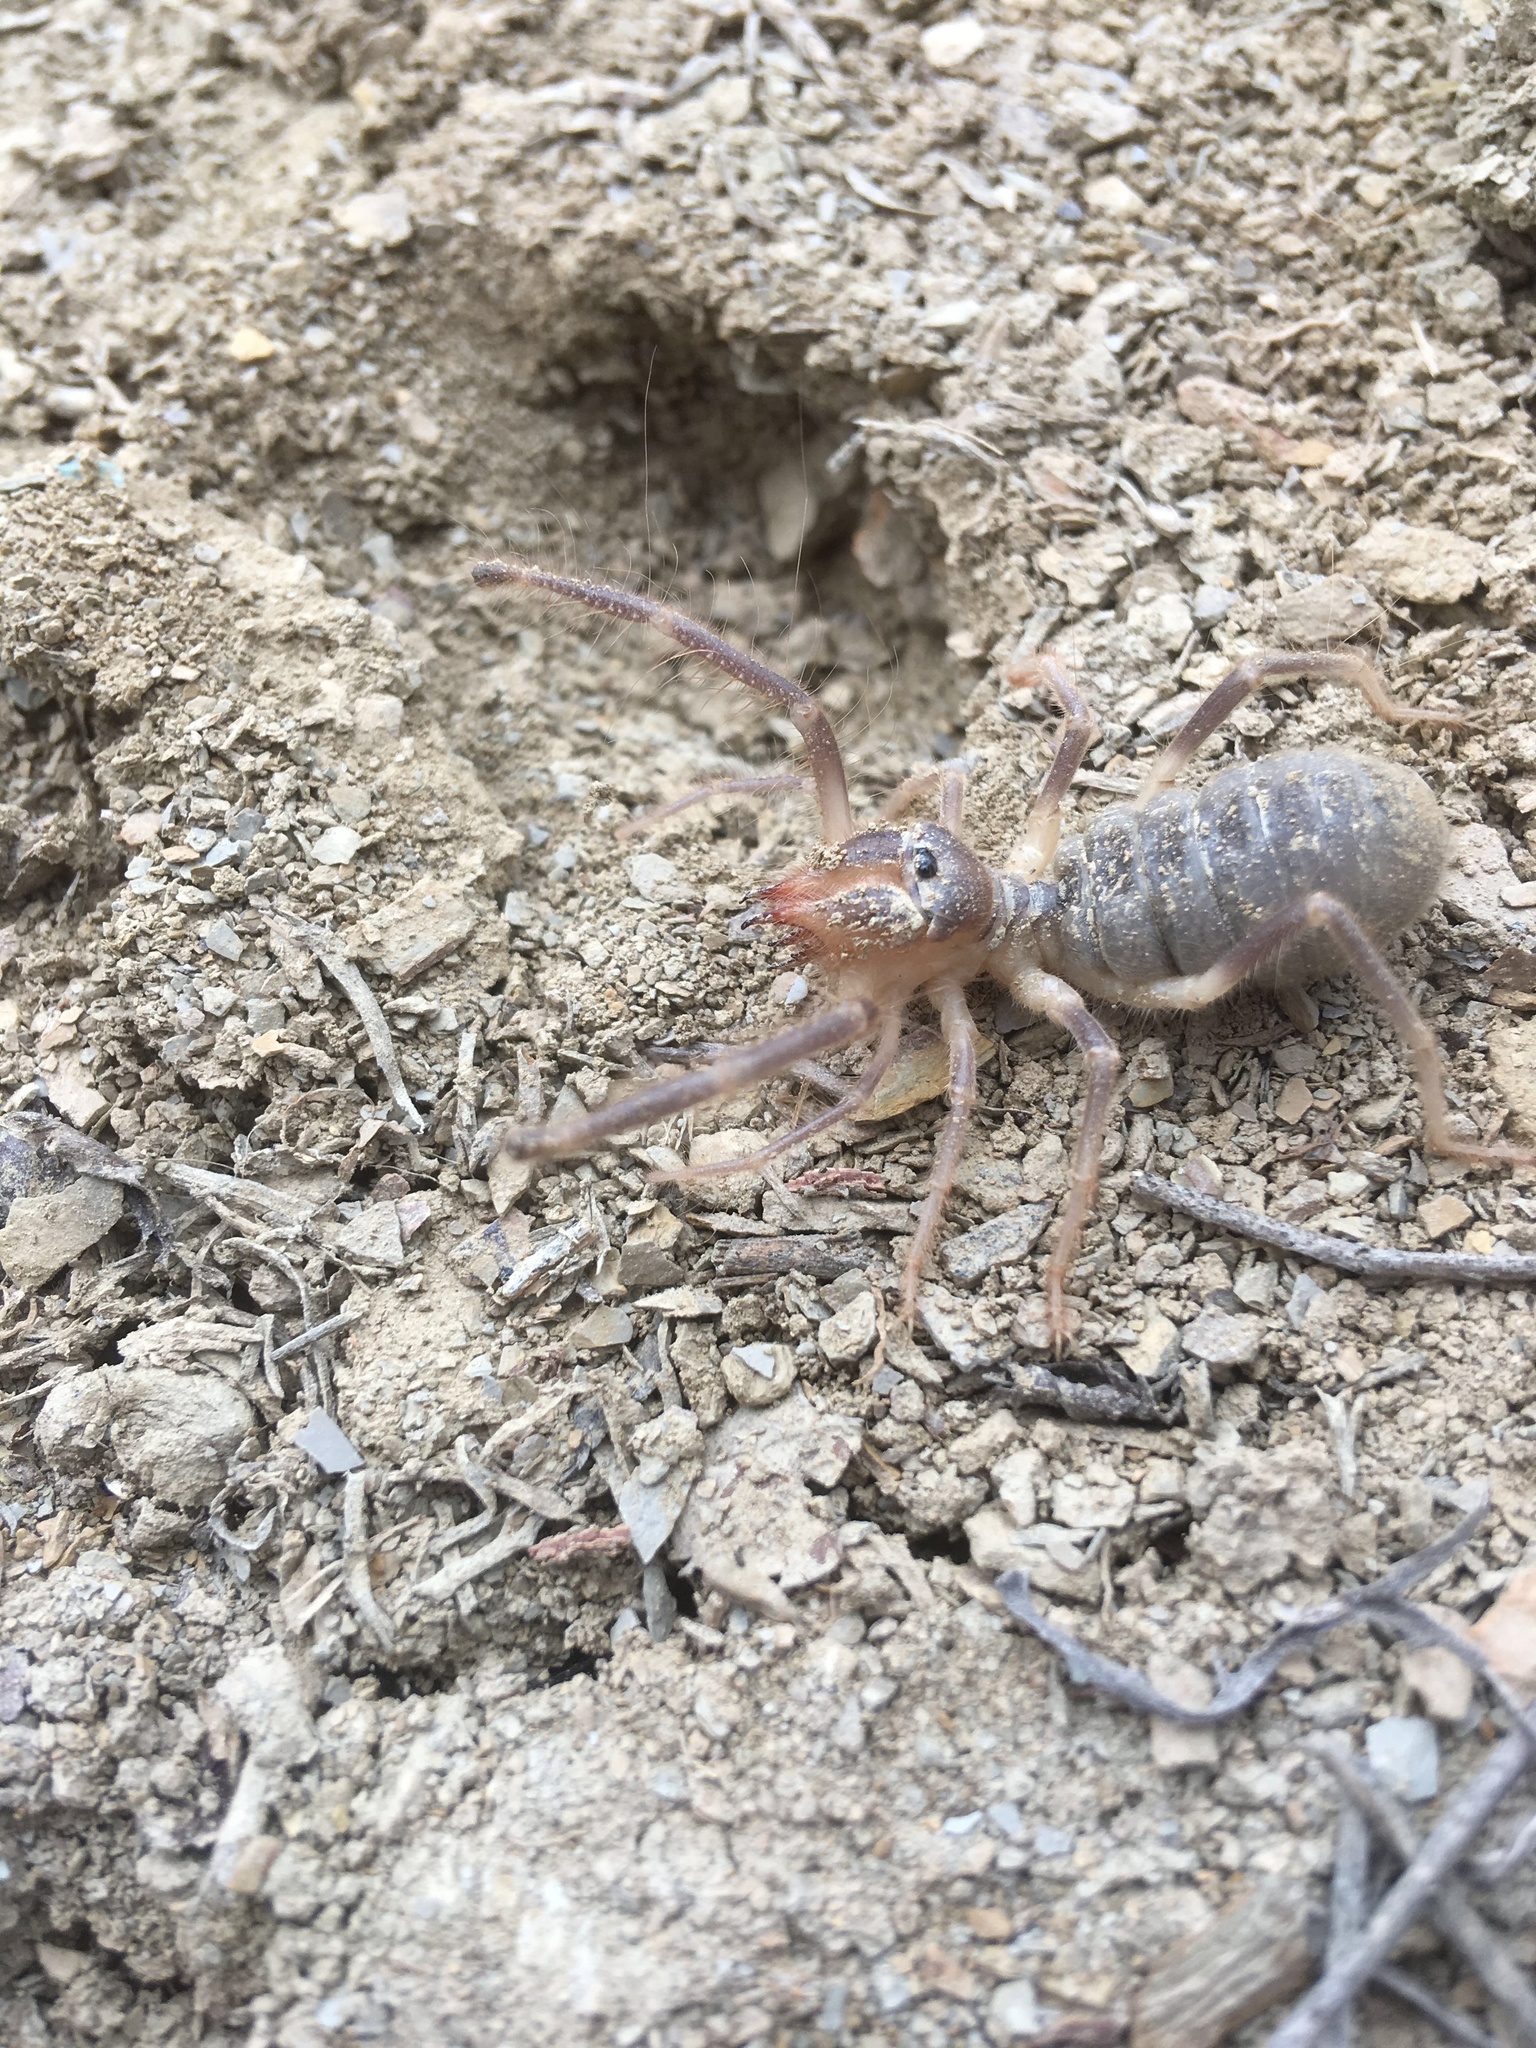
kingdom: Animalia
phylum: Arthropoda
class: Arachnida
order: Solifugae
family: Galeodidae
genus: Galeodes
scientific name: Galeodes araneoides
